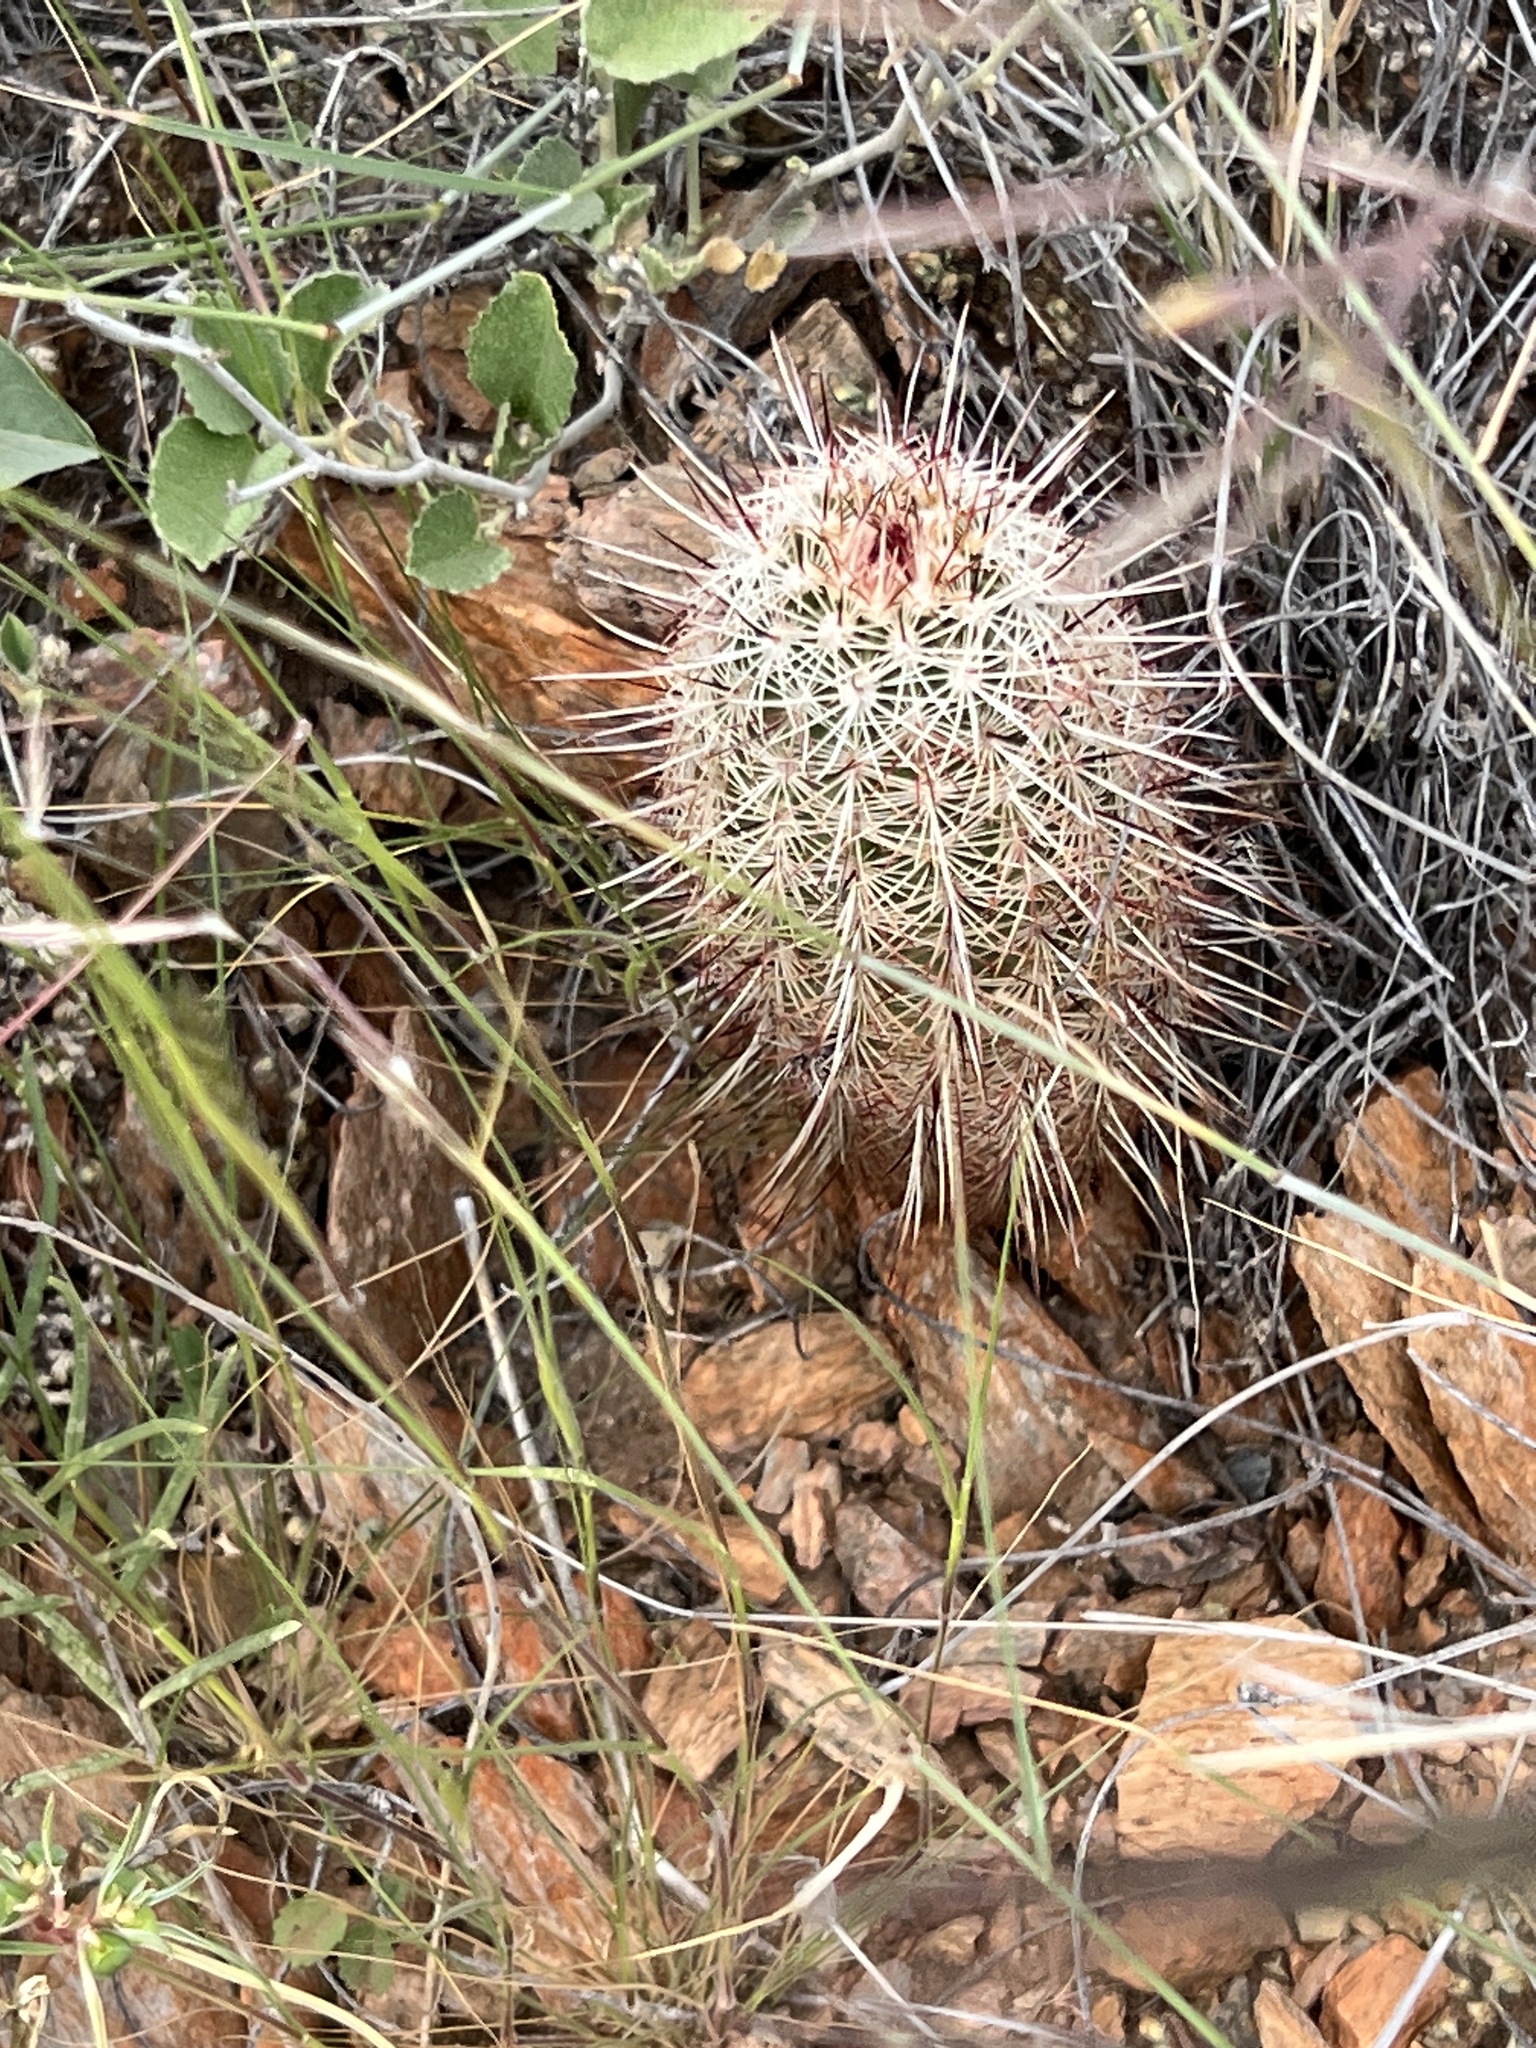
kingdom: Plantae
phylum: Tracheophyta
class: Magnoliopsida
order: Caryophyllales
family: Cactaceae
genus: Echinocereus
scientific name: Echinocereus viridiflorus
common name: Nylon hedgehog cactus
